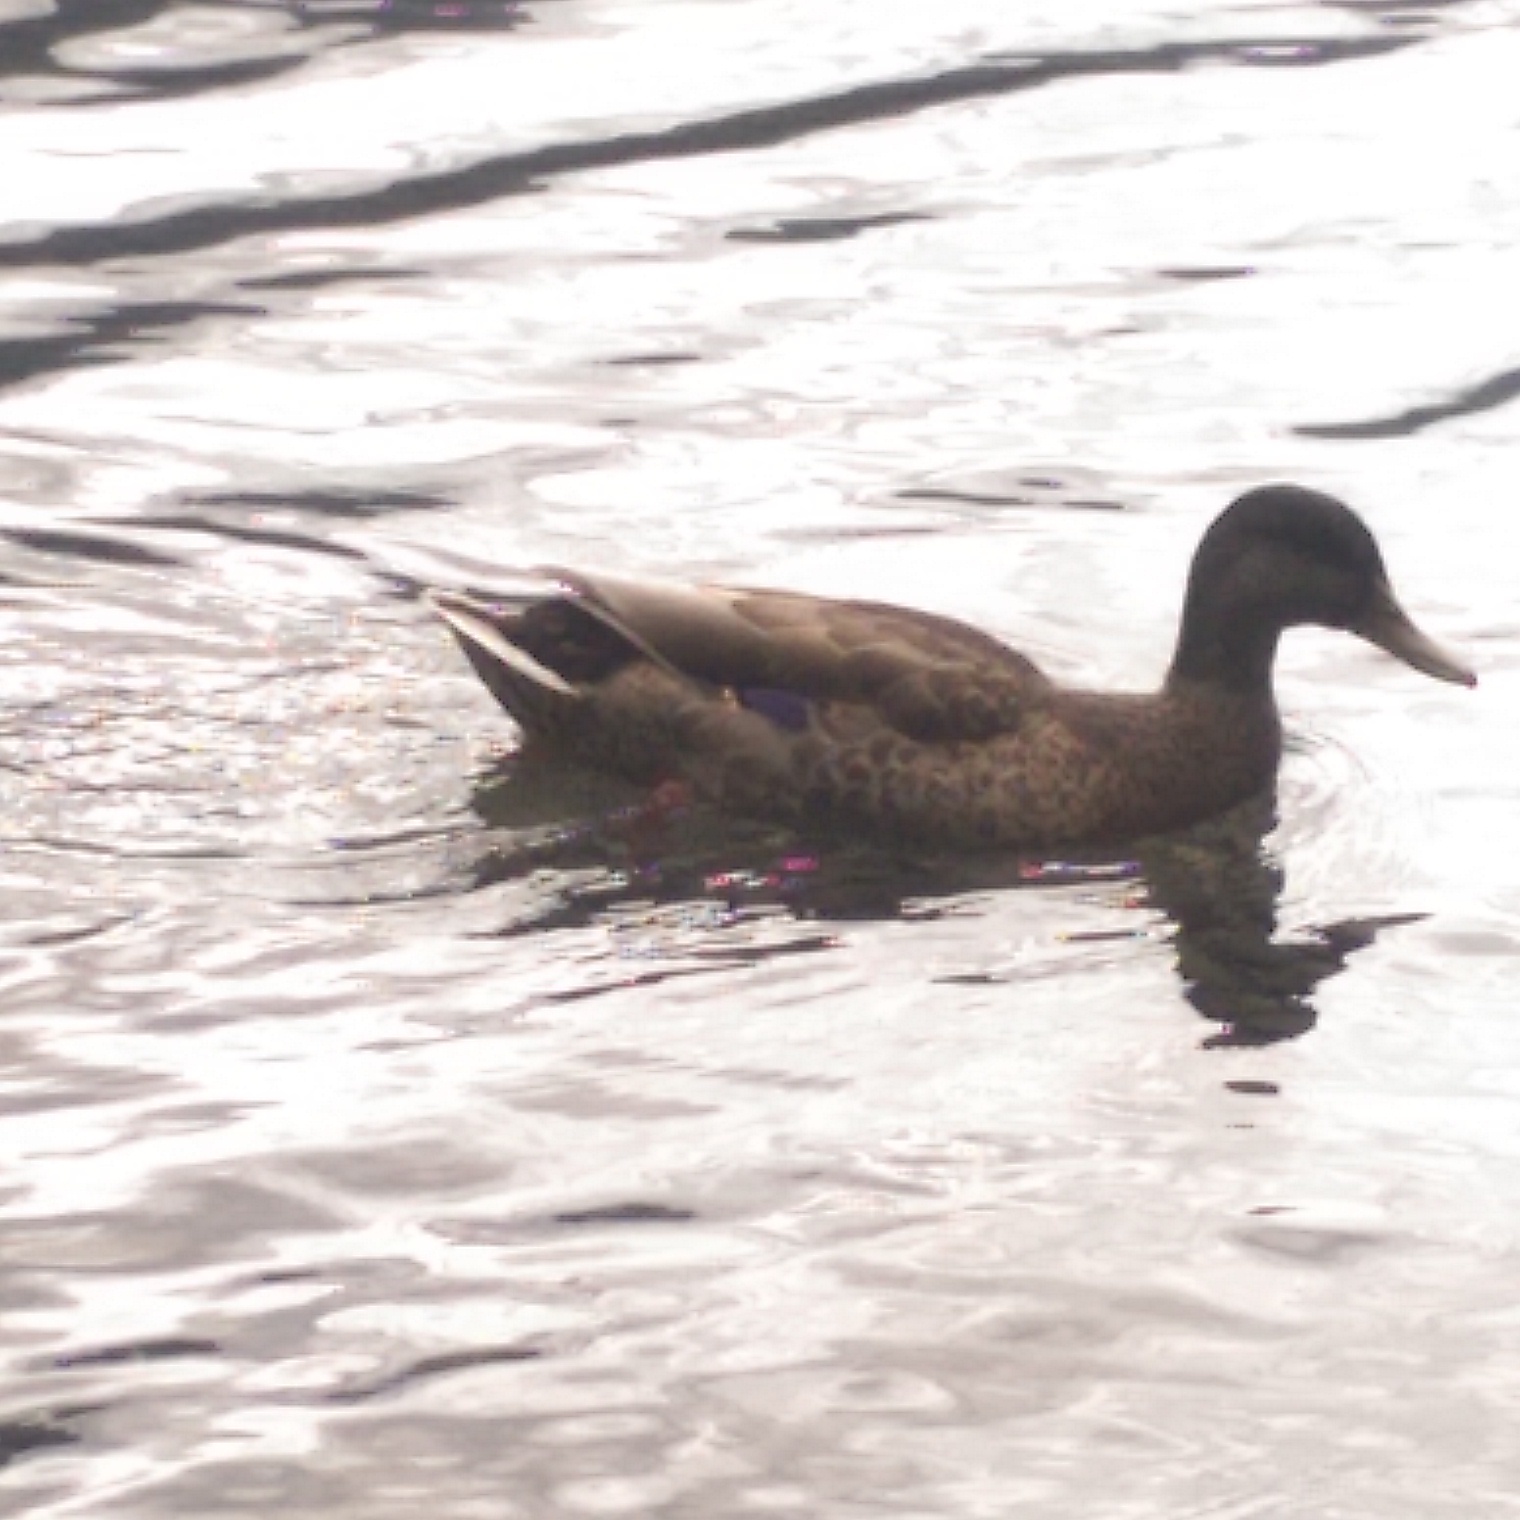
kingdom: Animalia
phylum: Chordata
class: Aves
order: Anseriformes
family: Anatidae
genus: Anas
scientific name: Anas platyrhynchos
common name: Mallard
